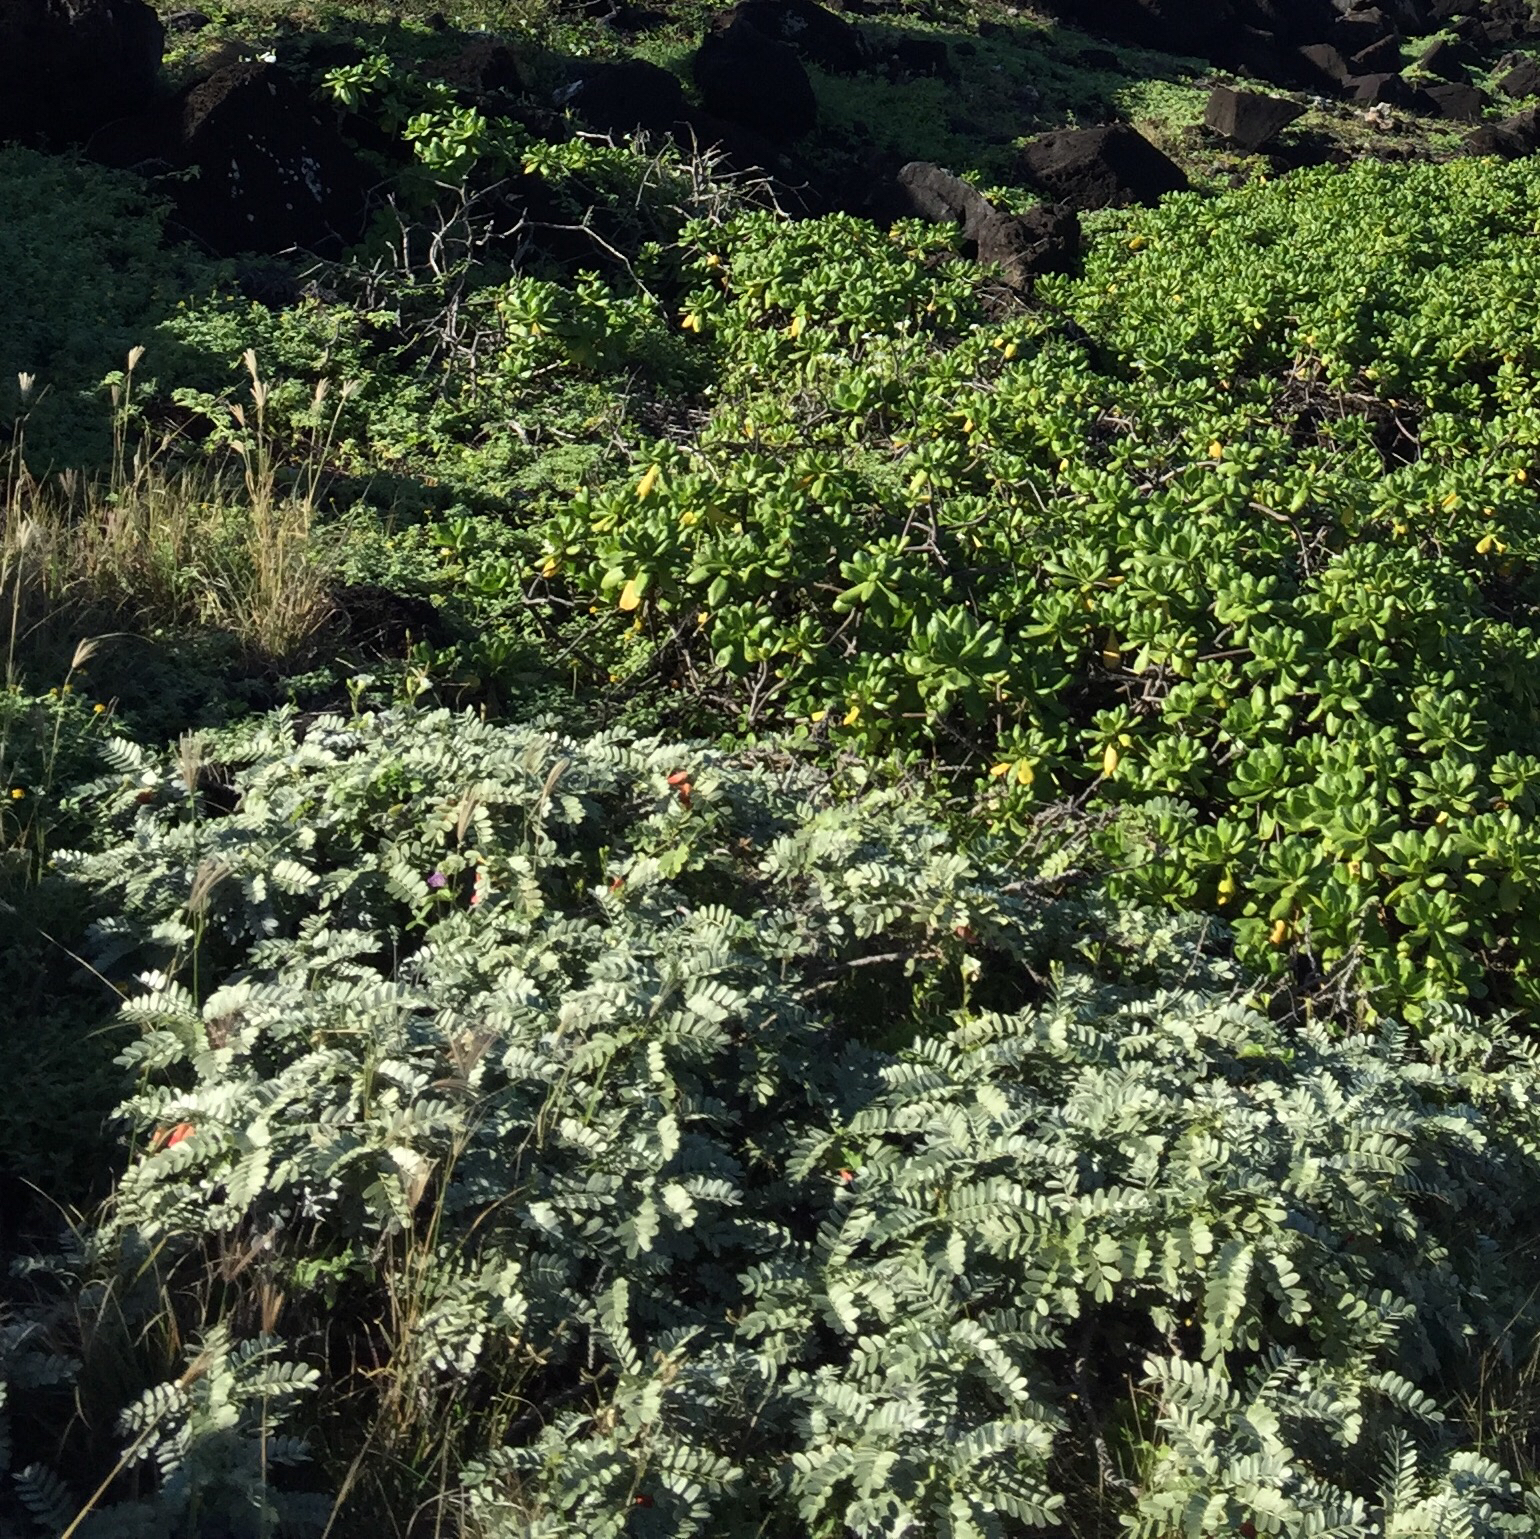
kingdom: Plantae
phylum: Tracheophyta
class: Magnoliopsida
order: Fabales
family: Fabaceae
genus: Sesbania
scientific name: Sesbania tomentosa
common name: `ohai
